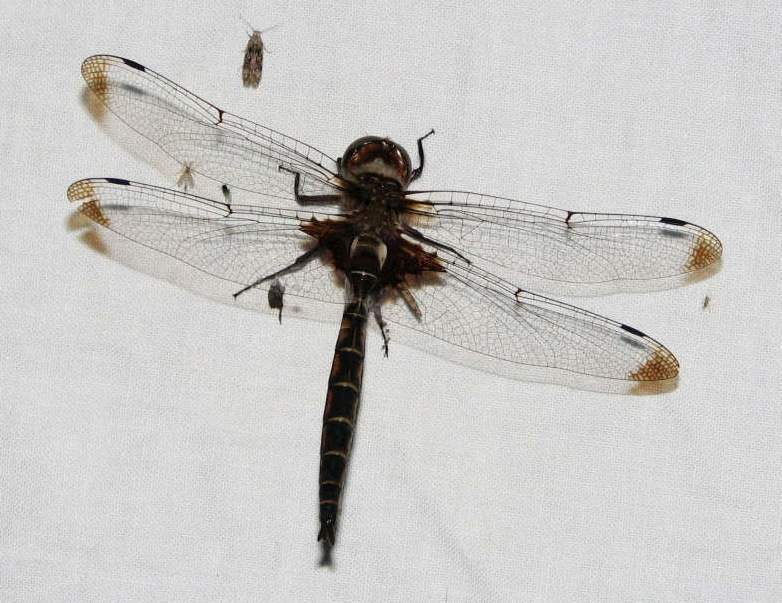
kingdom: Animalia
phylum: Arthropoda
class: Insecta
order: Odonata
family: Corduliidae
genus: Epitheca
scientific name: Epitheca princeps
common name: Prince baskettail
